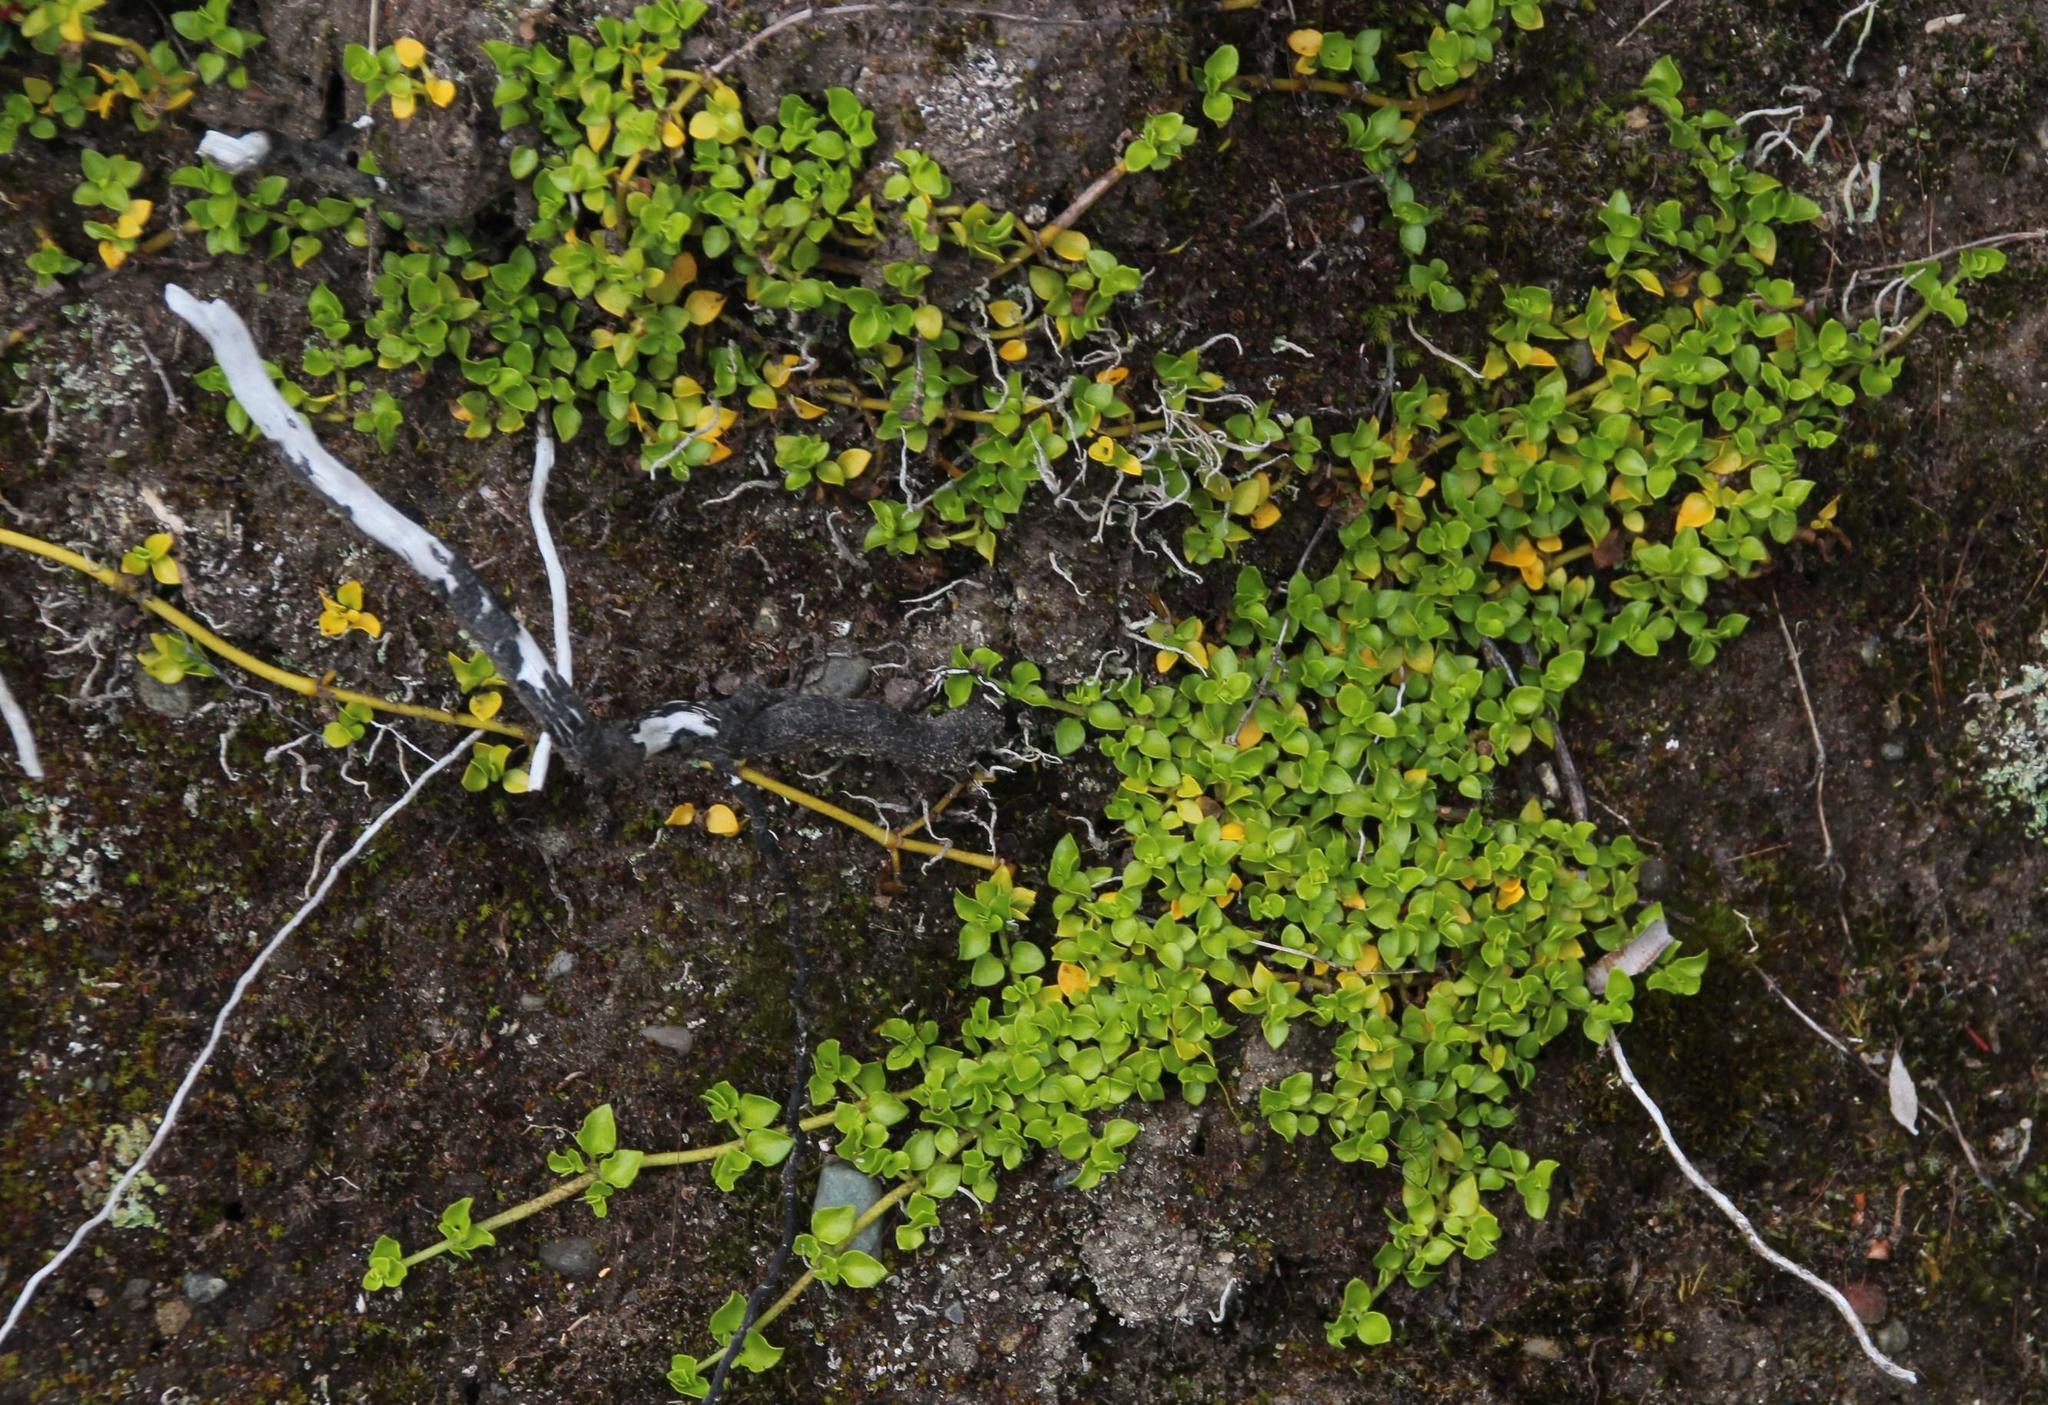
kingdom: Plantae
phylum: Tracheophyta
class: Magnoliopsida
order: Gentianales
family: Rubiaceae
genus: Nertera
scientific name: Nertera granadensis
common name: Beadplant
